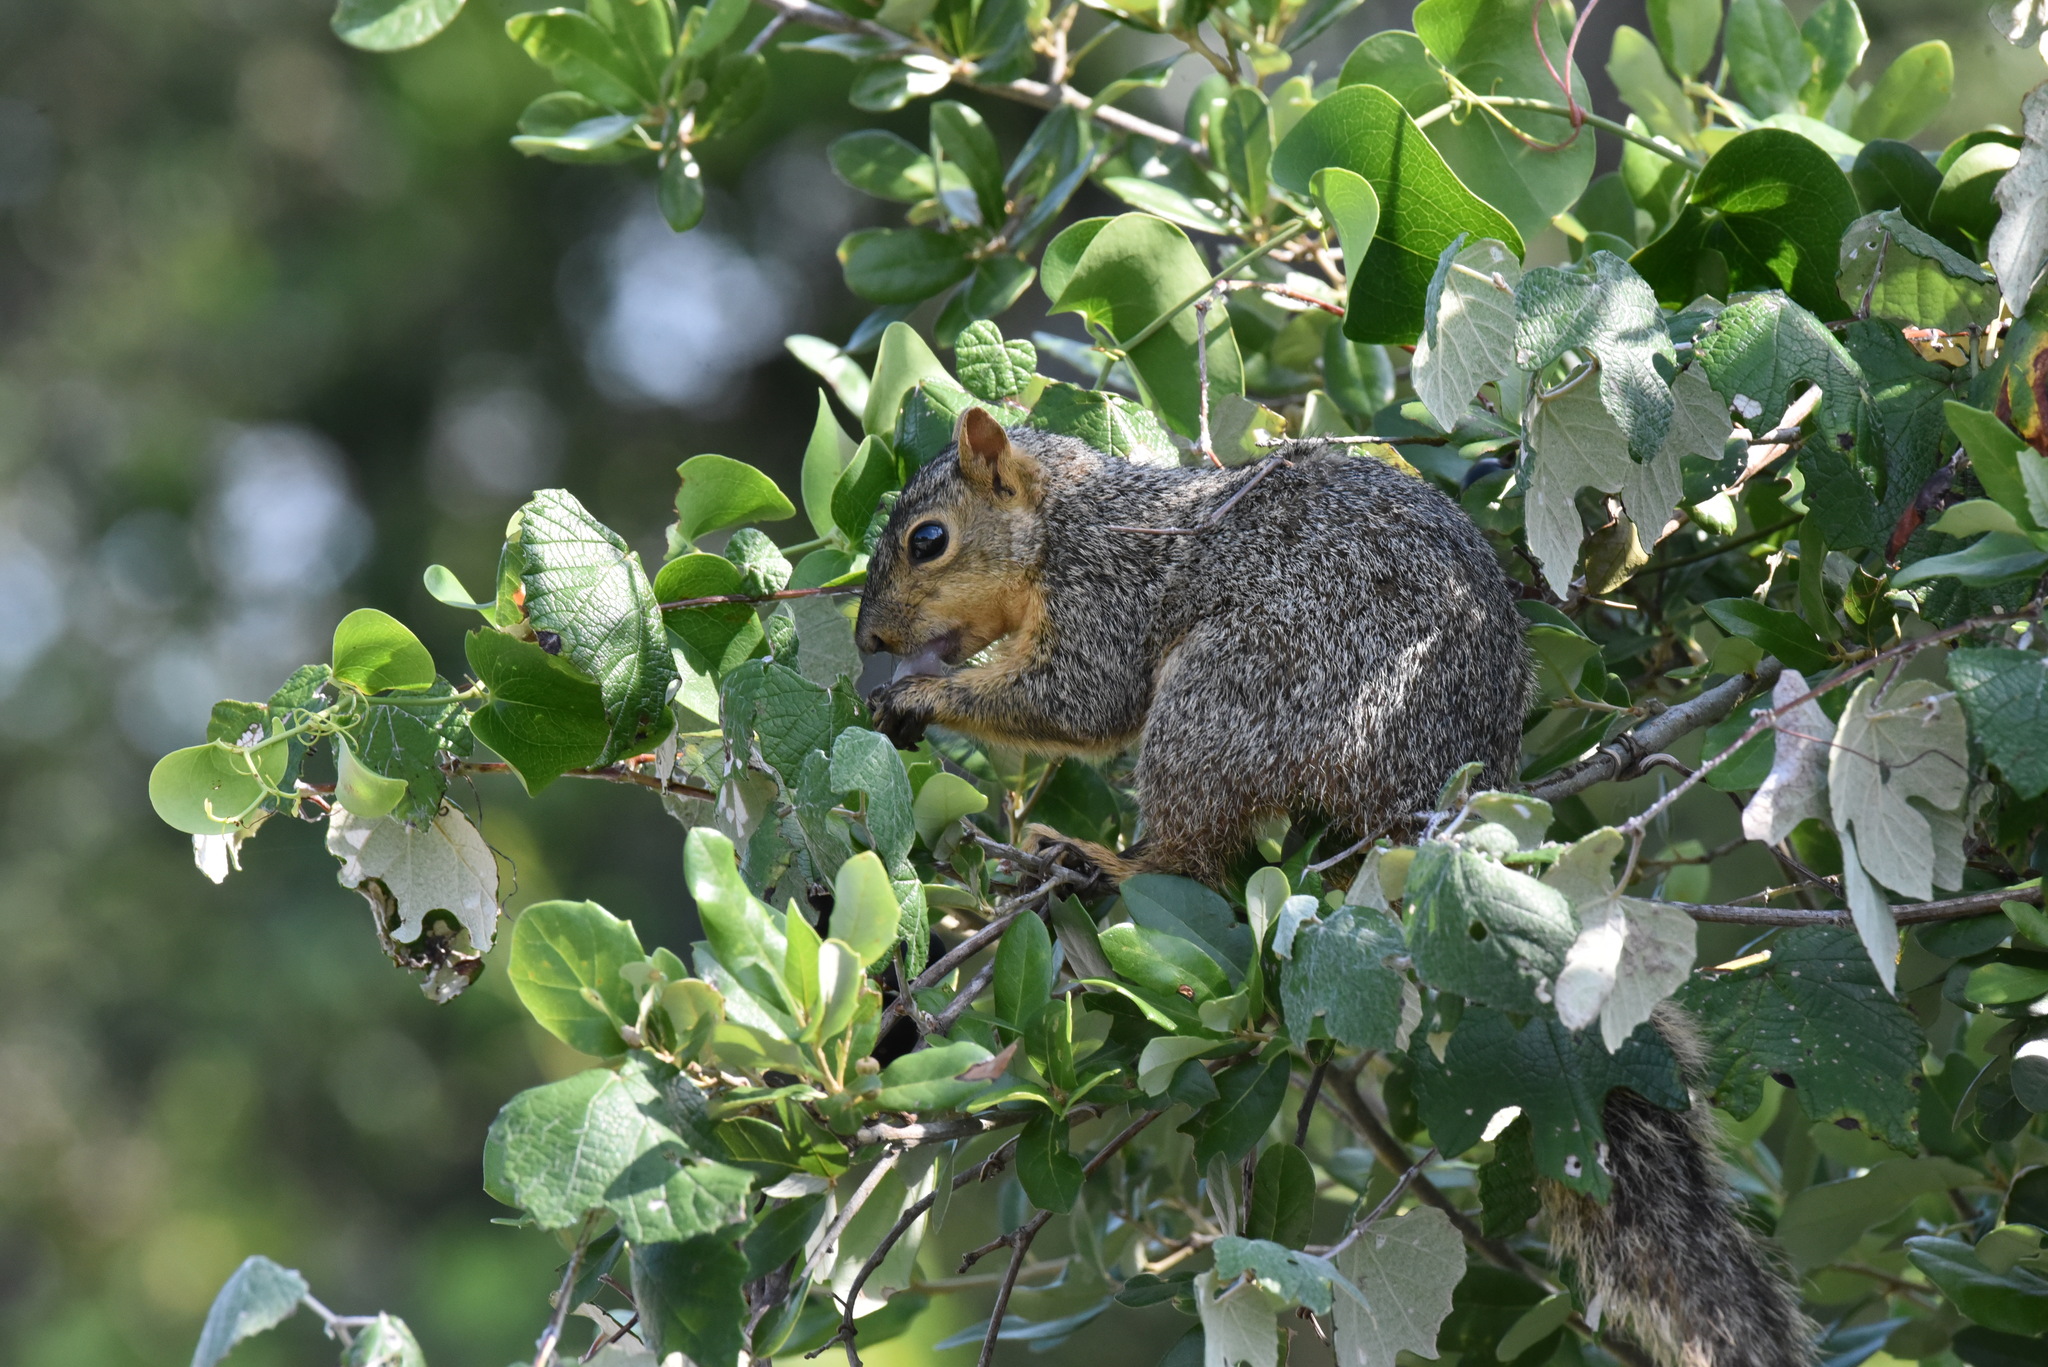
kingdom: Animalia
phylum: Chordata
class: Mammalia
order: Rodentia
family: Sciuridae
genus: Sciurus
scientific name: Sciurus niger
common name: Fox squirrel
